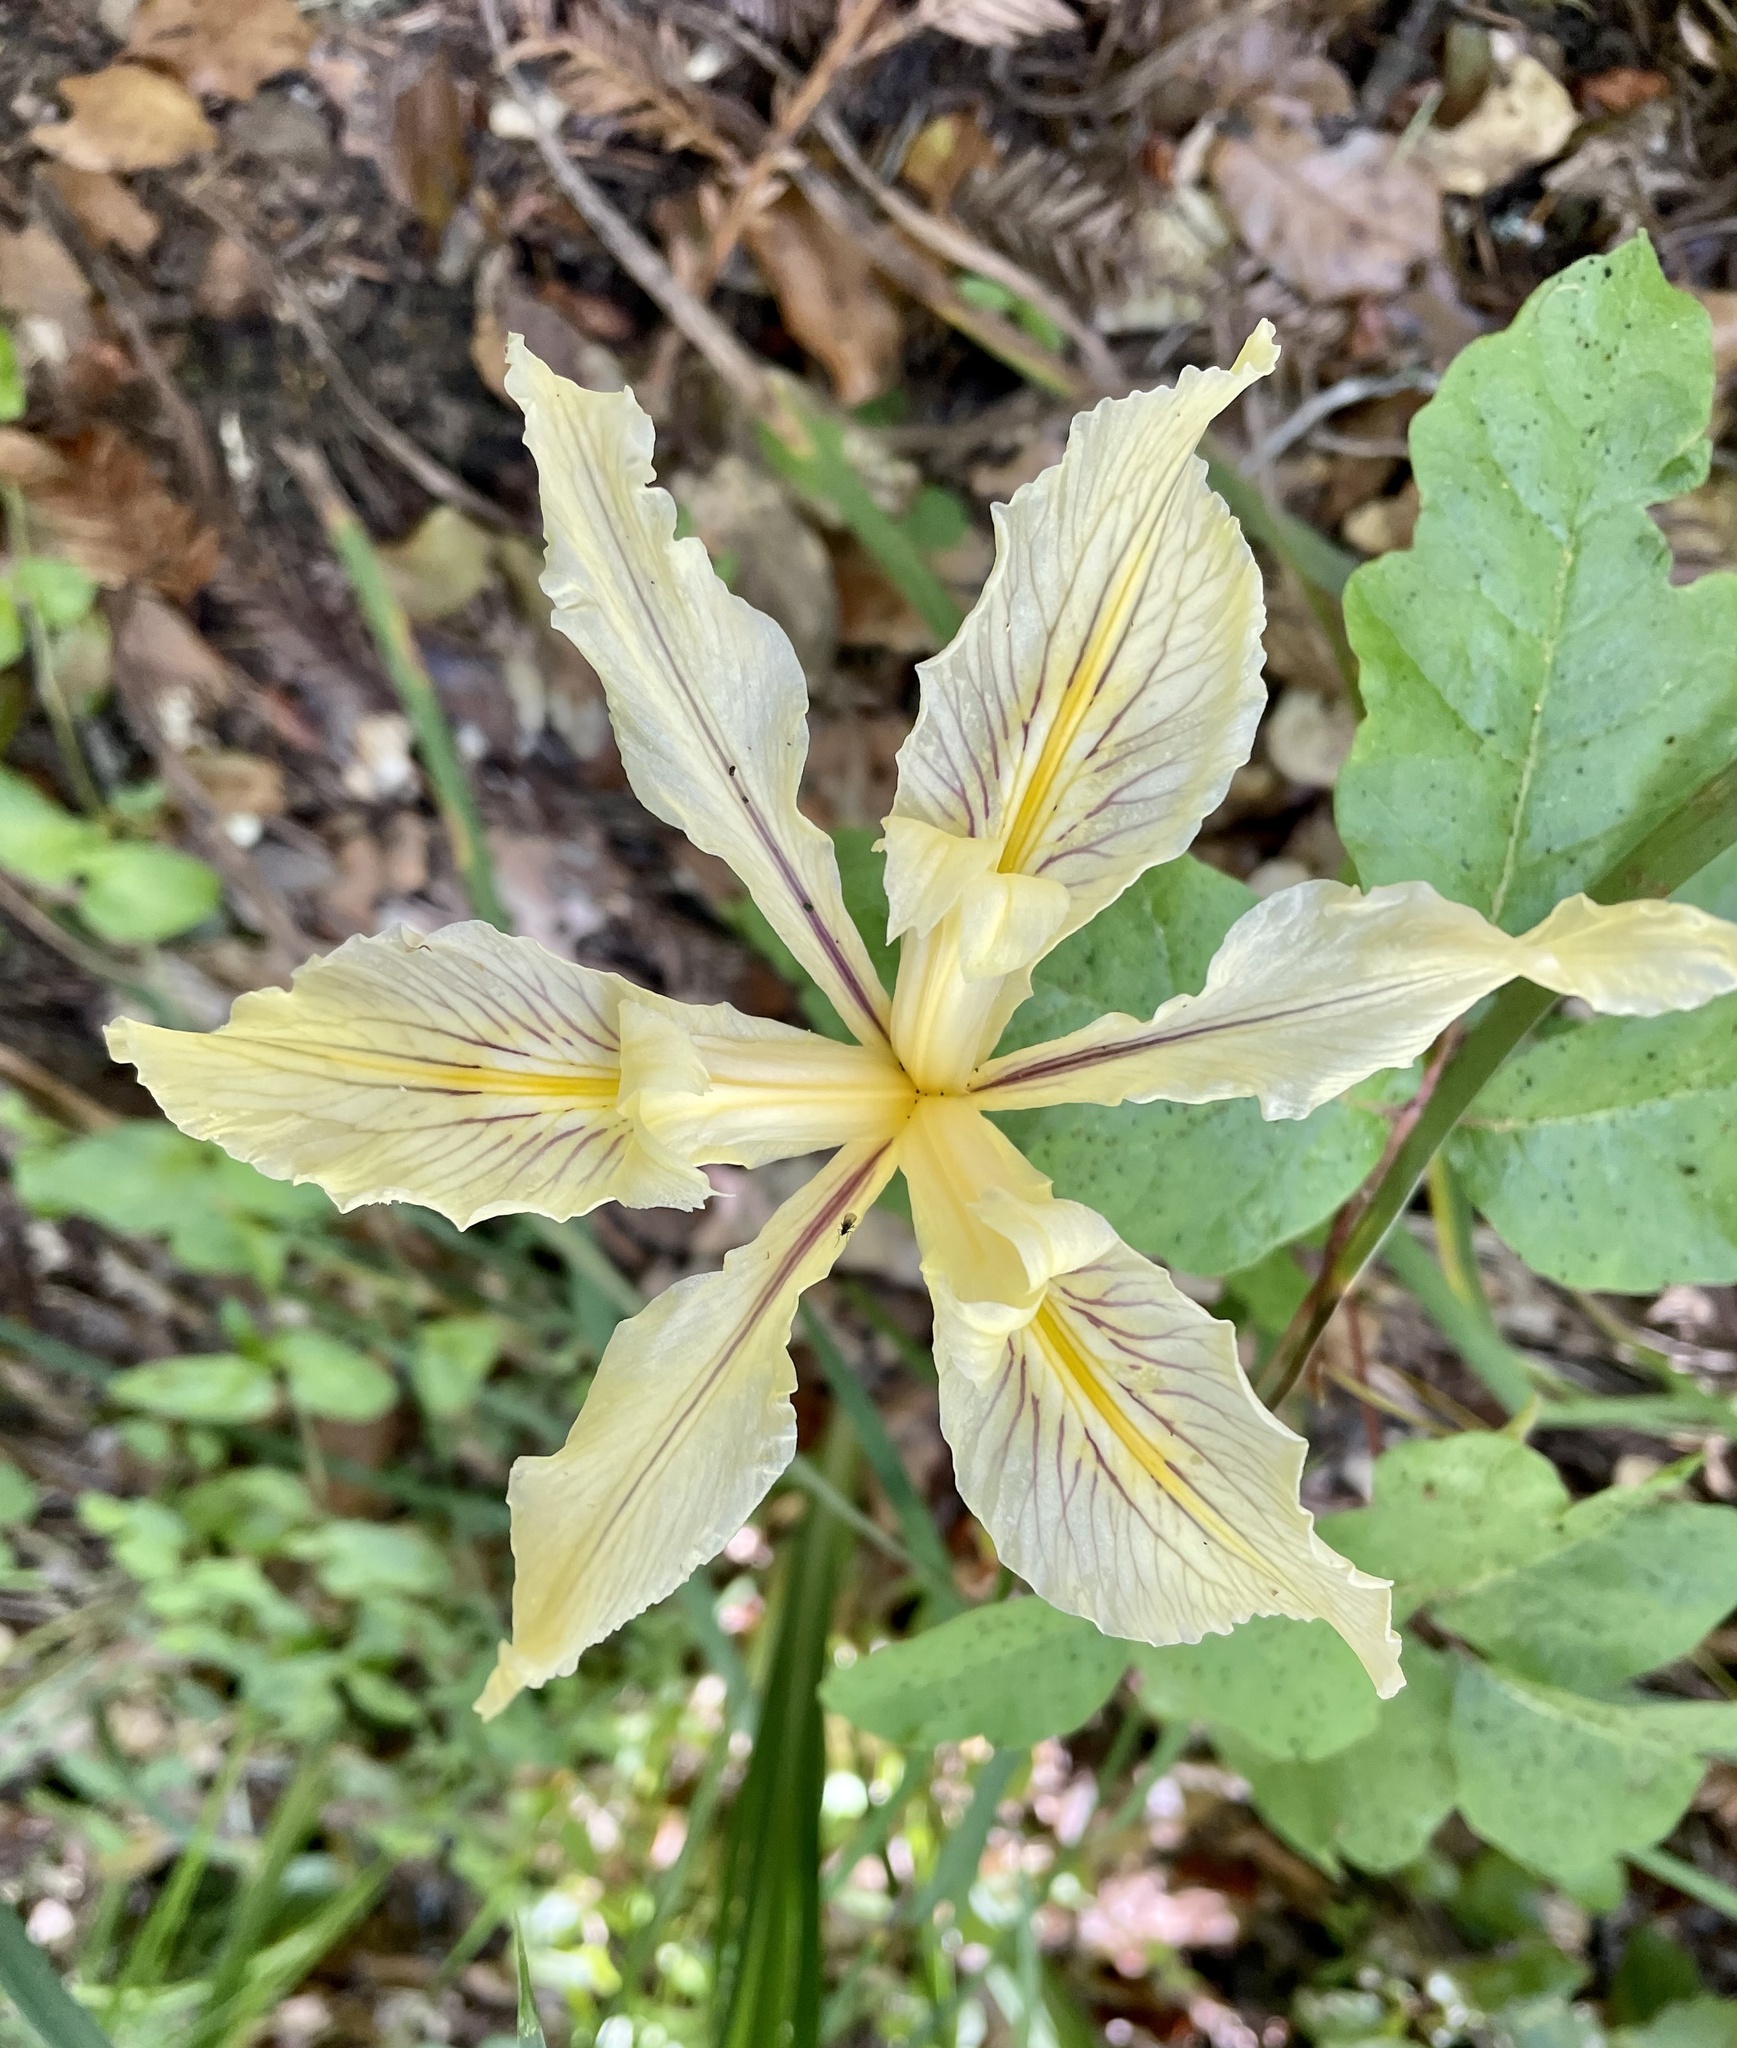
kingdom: Plantae
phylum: Tracheophyta
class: Liliopsida
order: Asparagales
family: Iridaceae
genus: Iris
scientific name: Iris fernaldii
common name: Fernald's iris
